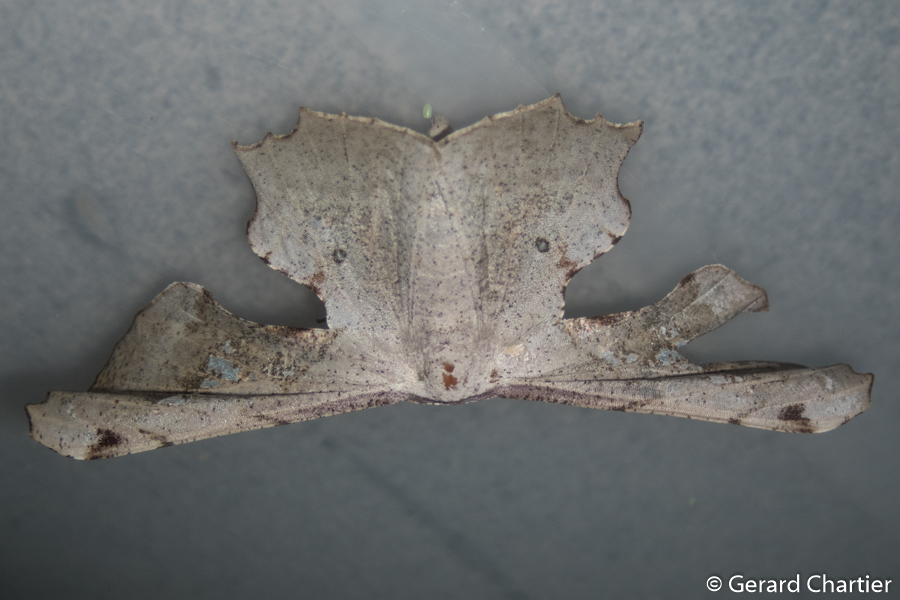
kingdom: Animalia
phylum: Arthropoda
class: Insecta
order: Lepidoptera
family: Geometridae
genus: Gonodontis
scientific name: Gonodontis clelia
